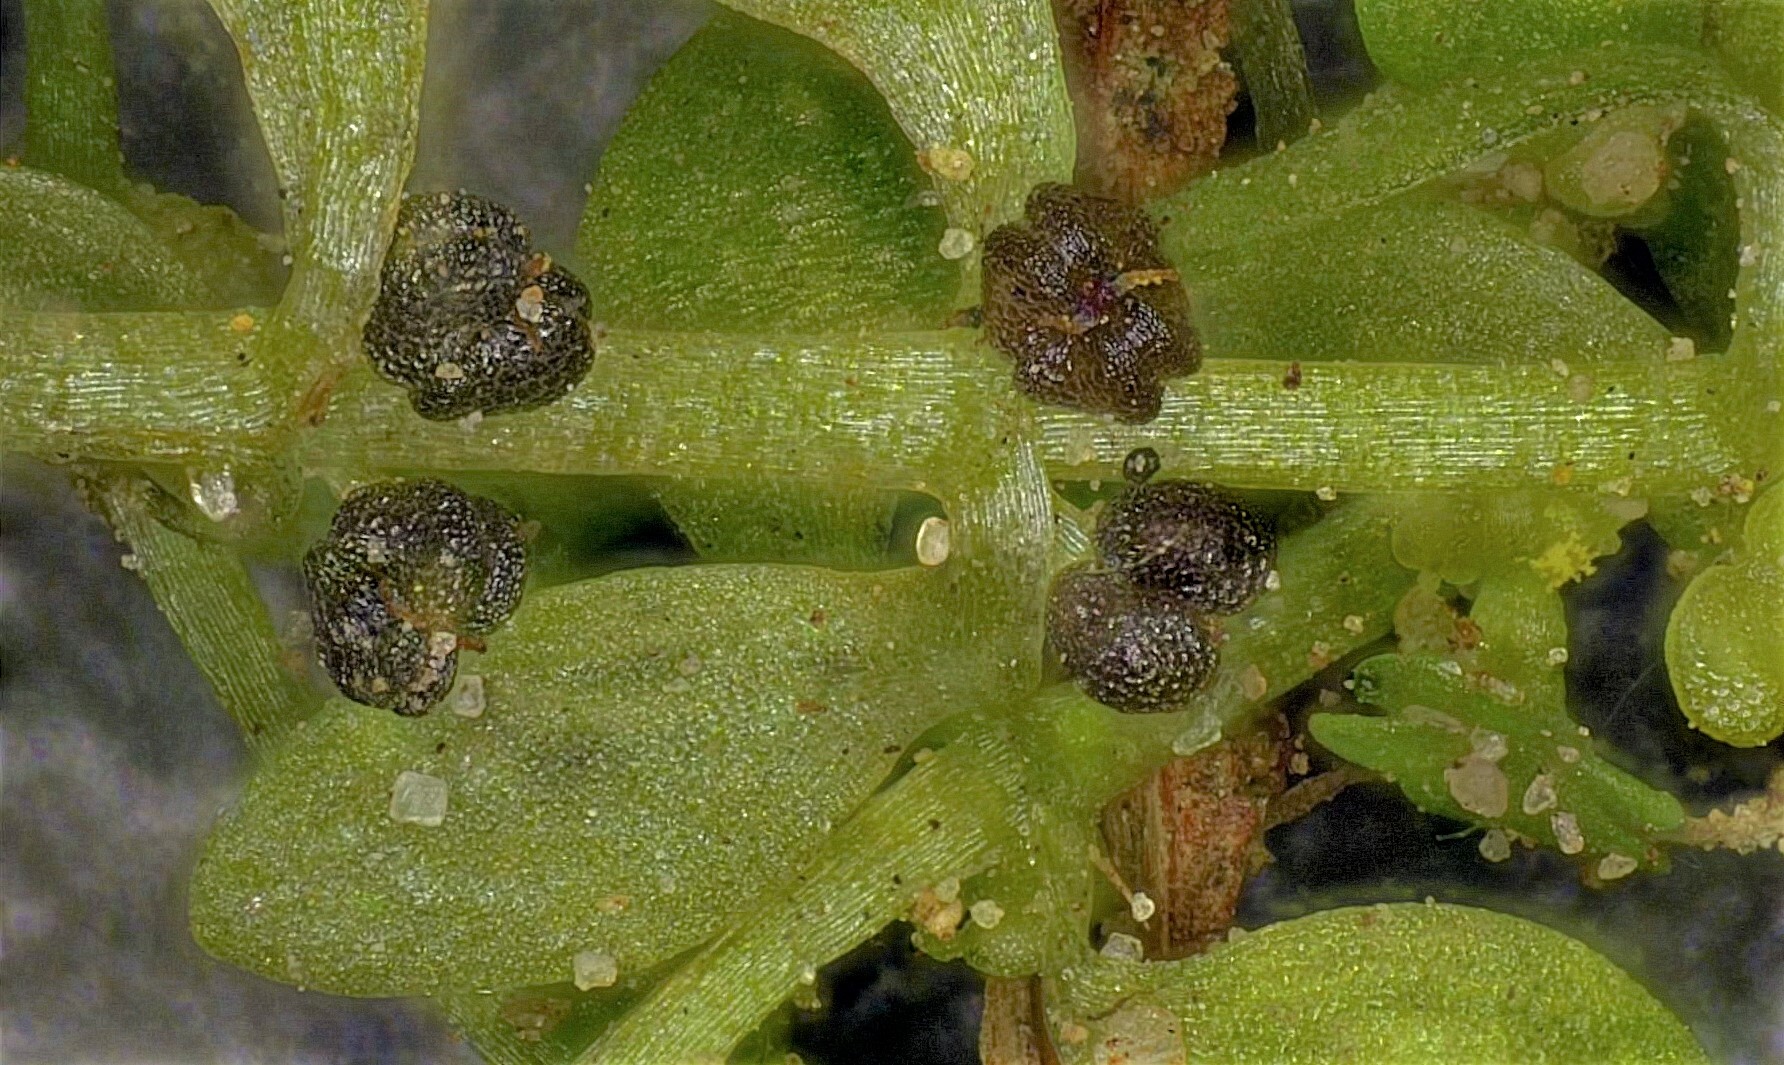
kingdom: Plantae
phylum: Tracheophyta
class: Magnoliopsida
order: Lamiales
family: Plantaginaceae
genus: Callitriche
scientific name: Callitriche peploides
